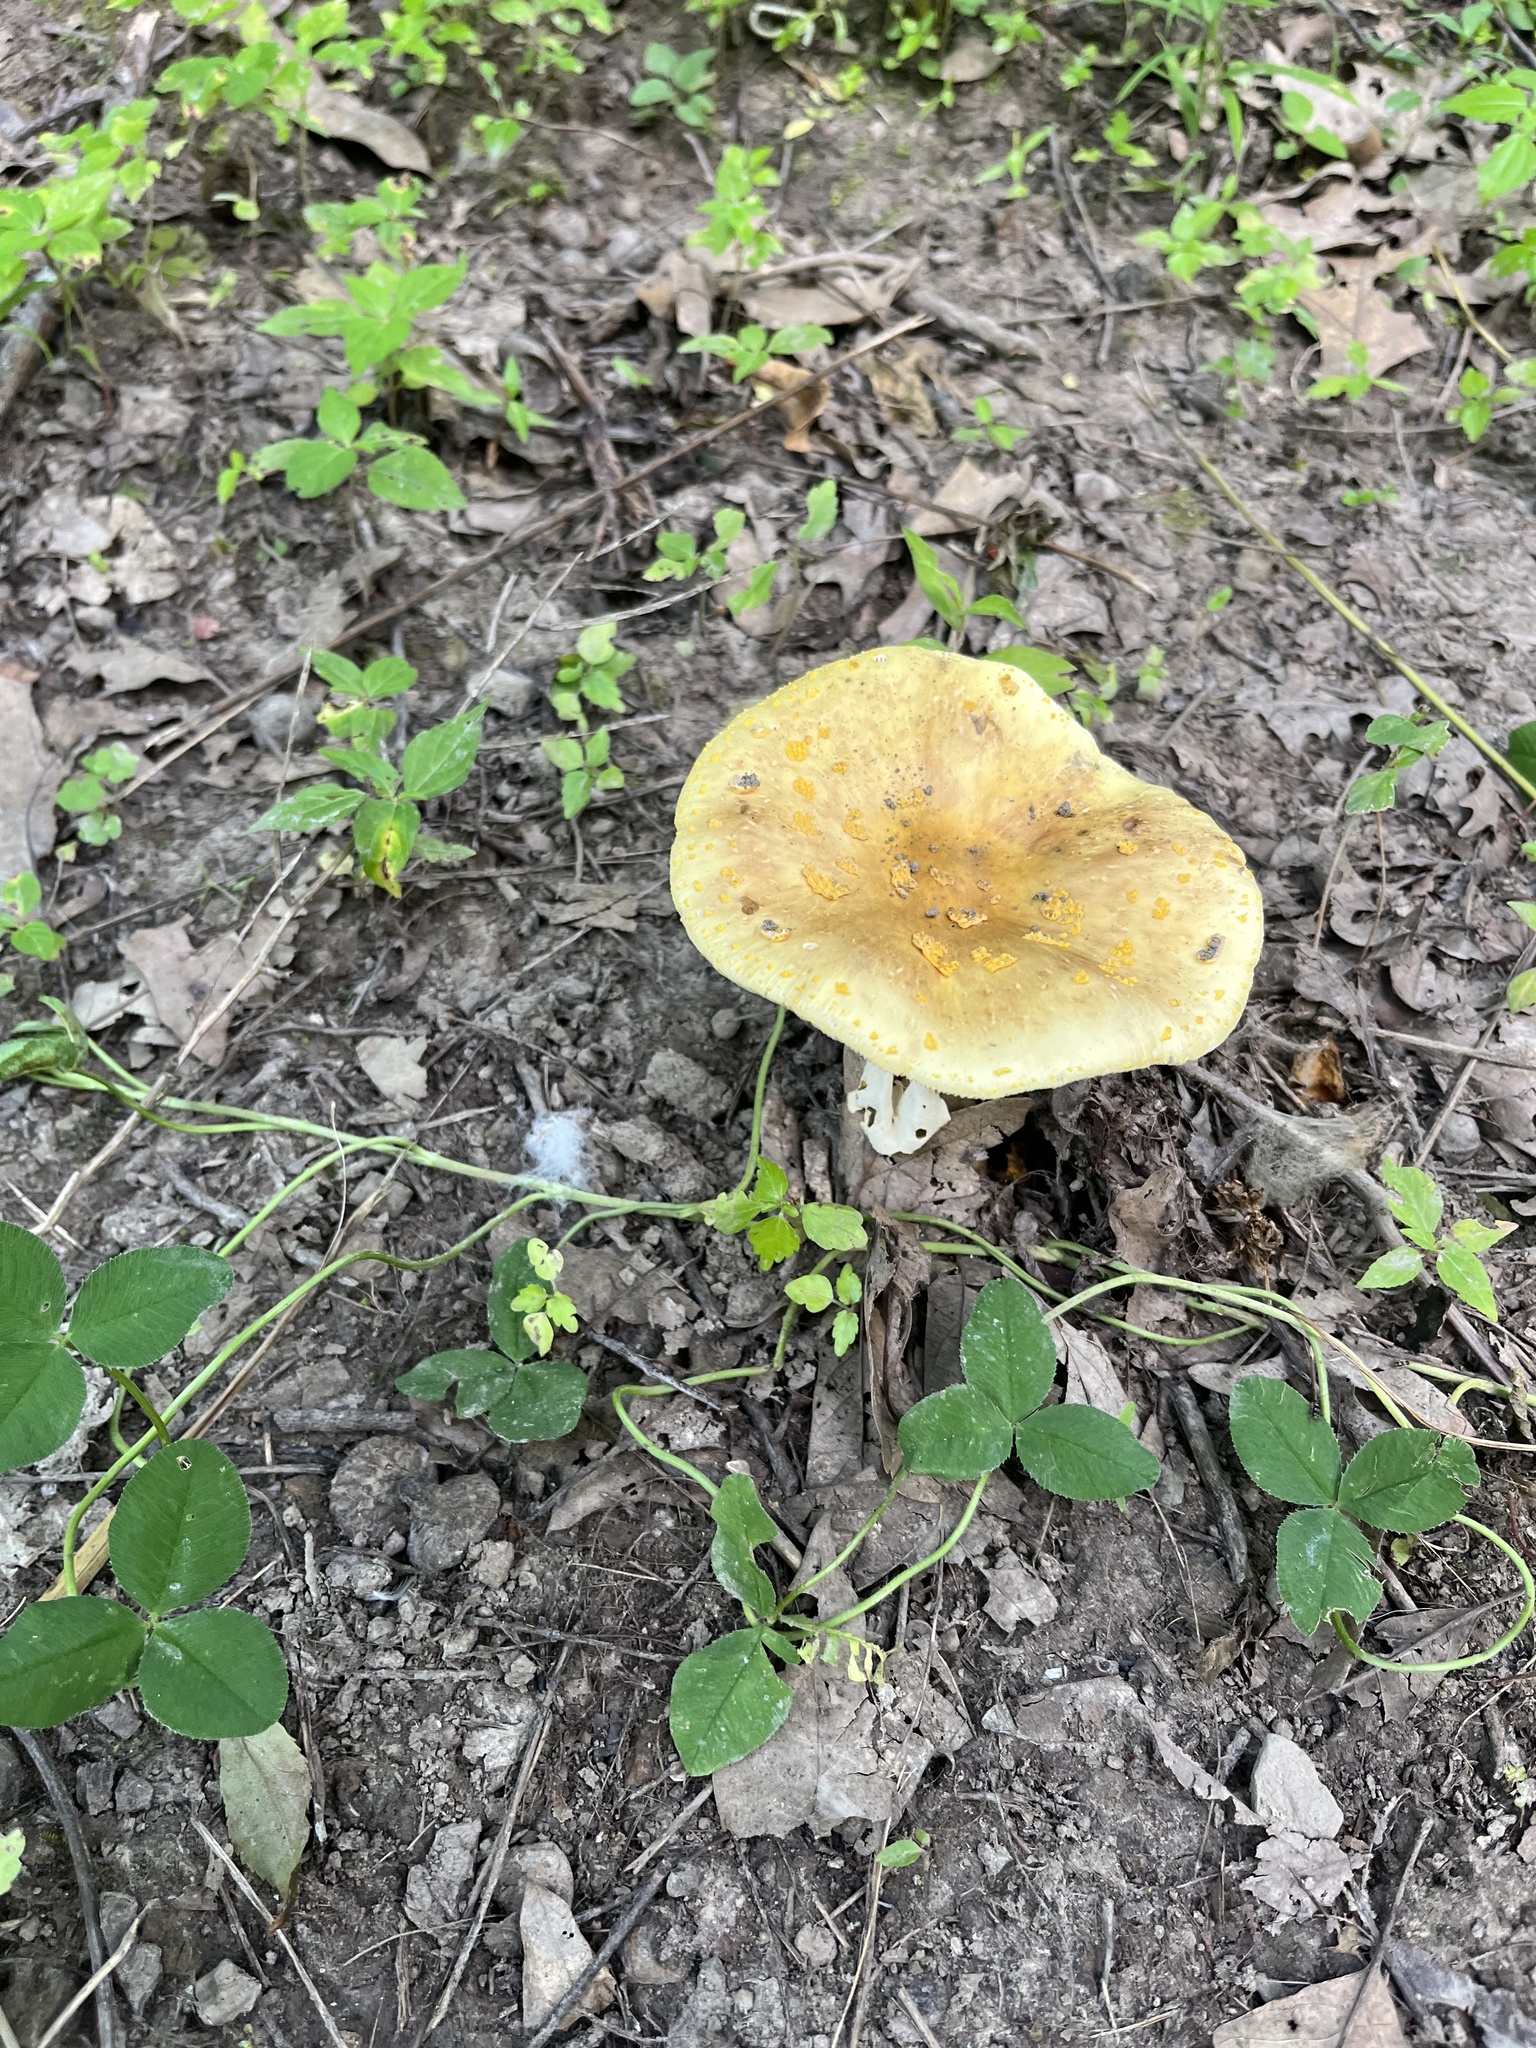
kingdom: Fungi
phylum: Basidiomycota
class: Agaricomycetes
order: Agaricales
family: Amanitaceae
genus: Amanita
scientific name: Amanita flavorubens
